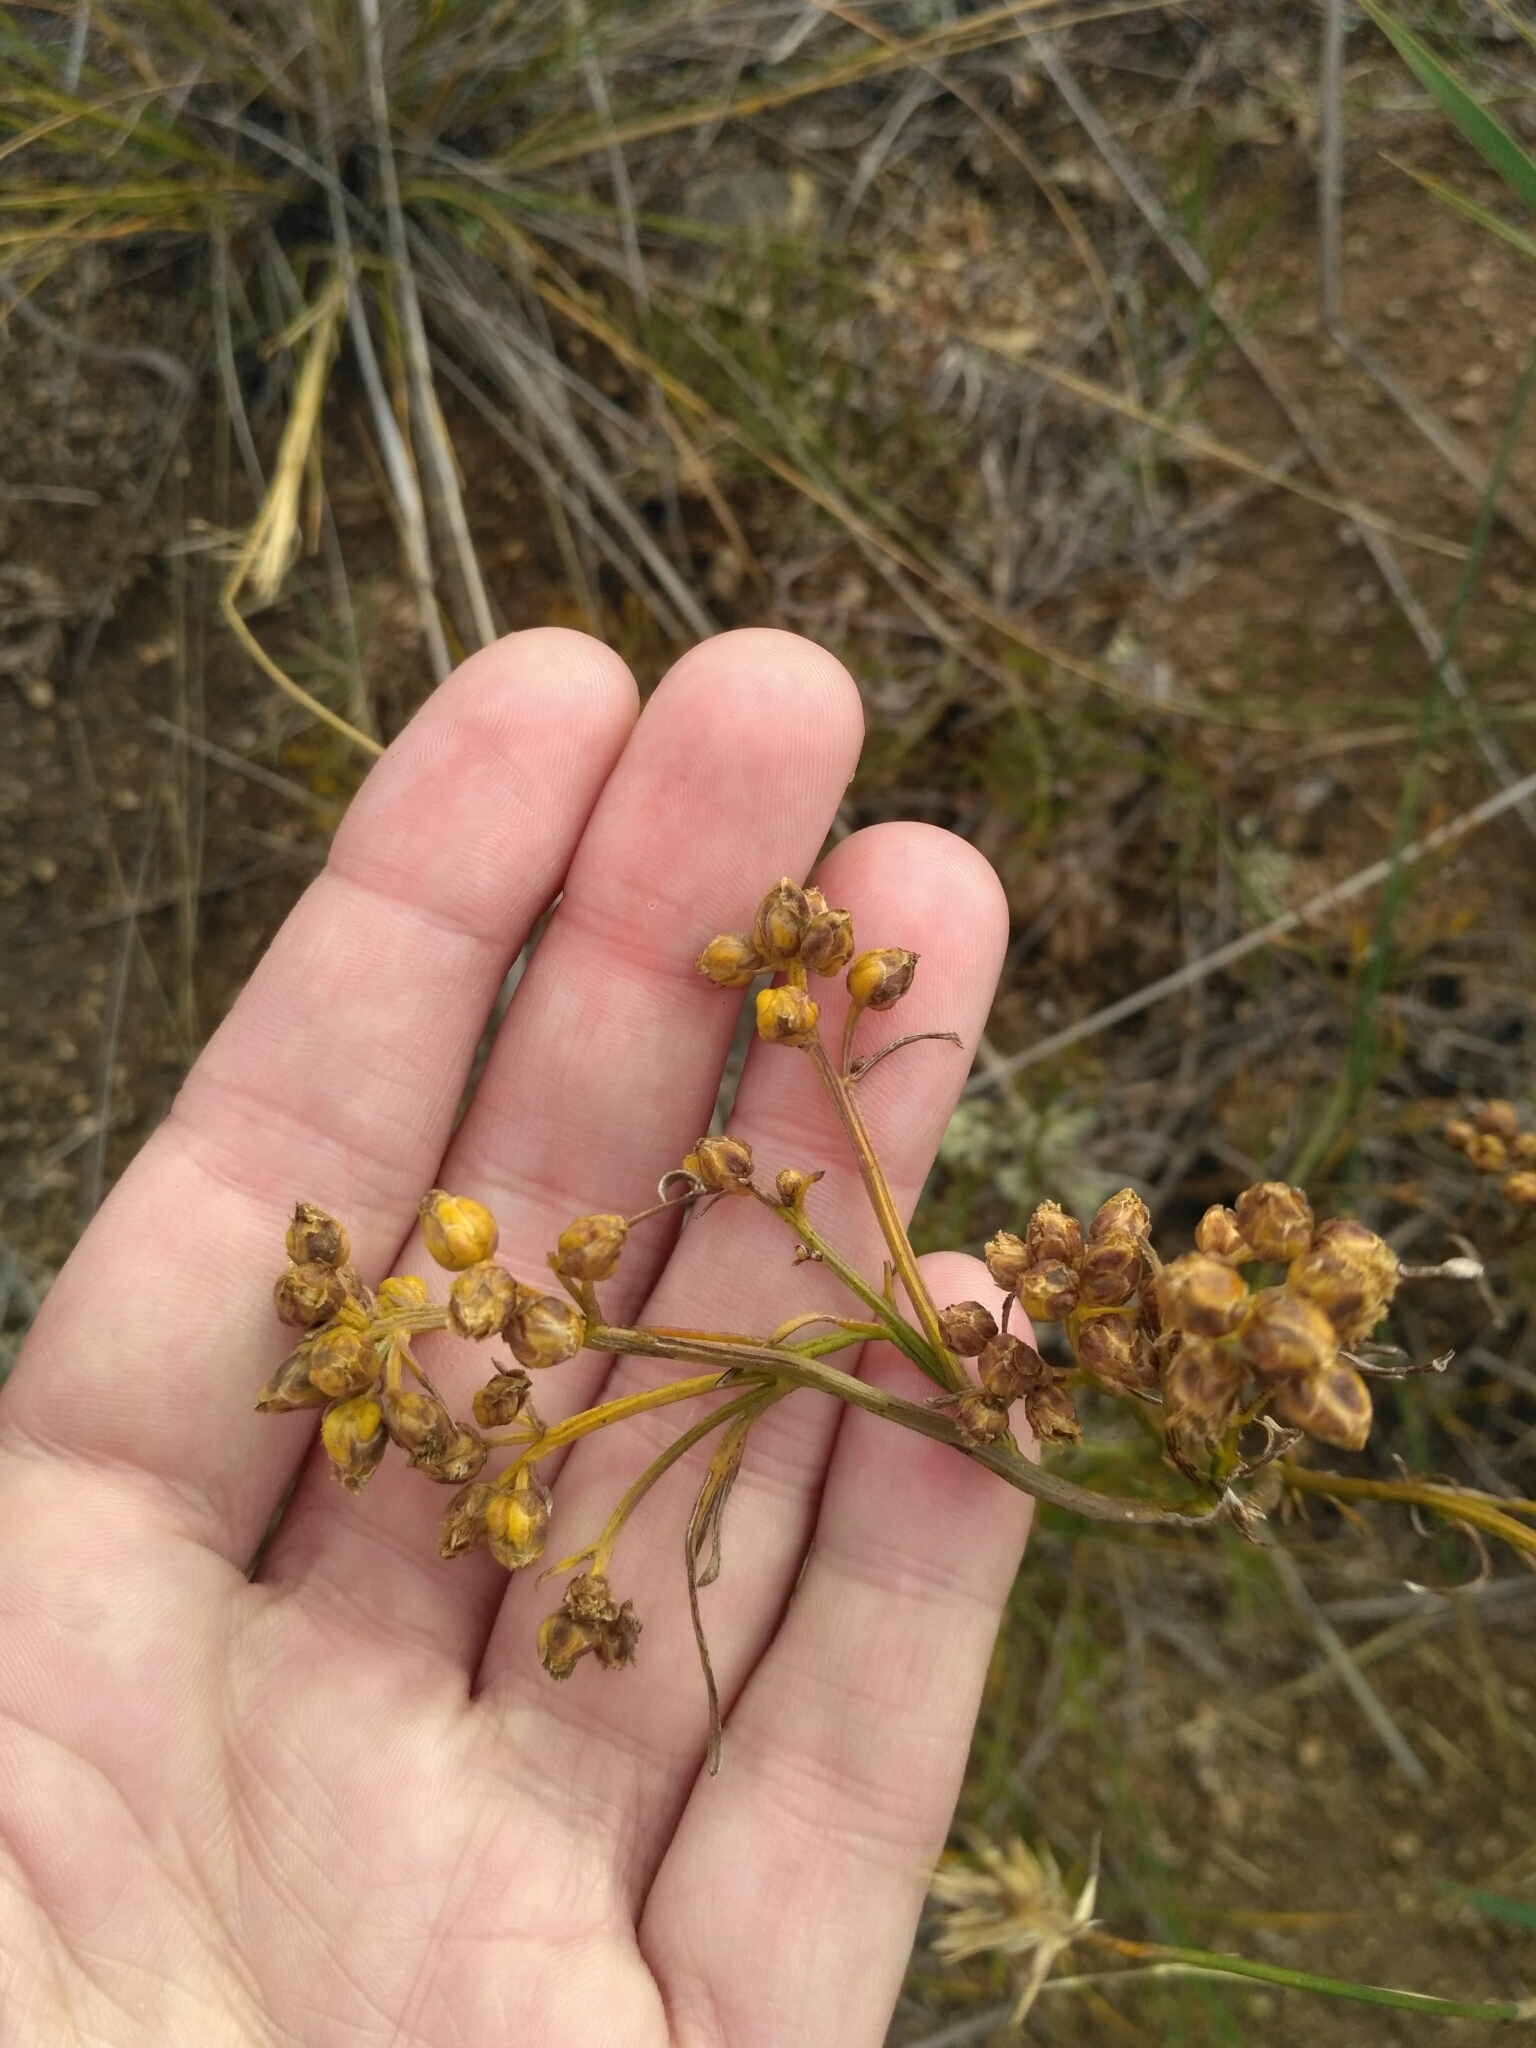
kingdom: Plantae
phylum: Tracheophyta
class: Magnoliopsida
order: Asterales
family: Asteraceae
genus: Filifolium
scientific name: Filifolium sibiricum
